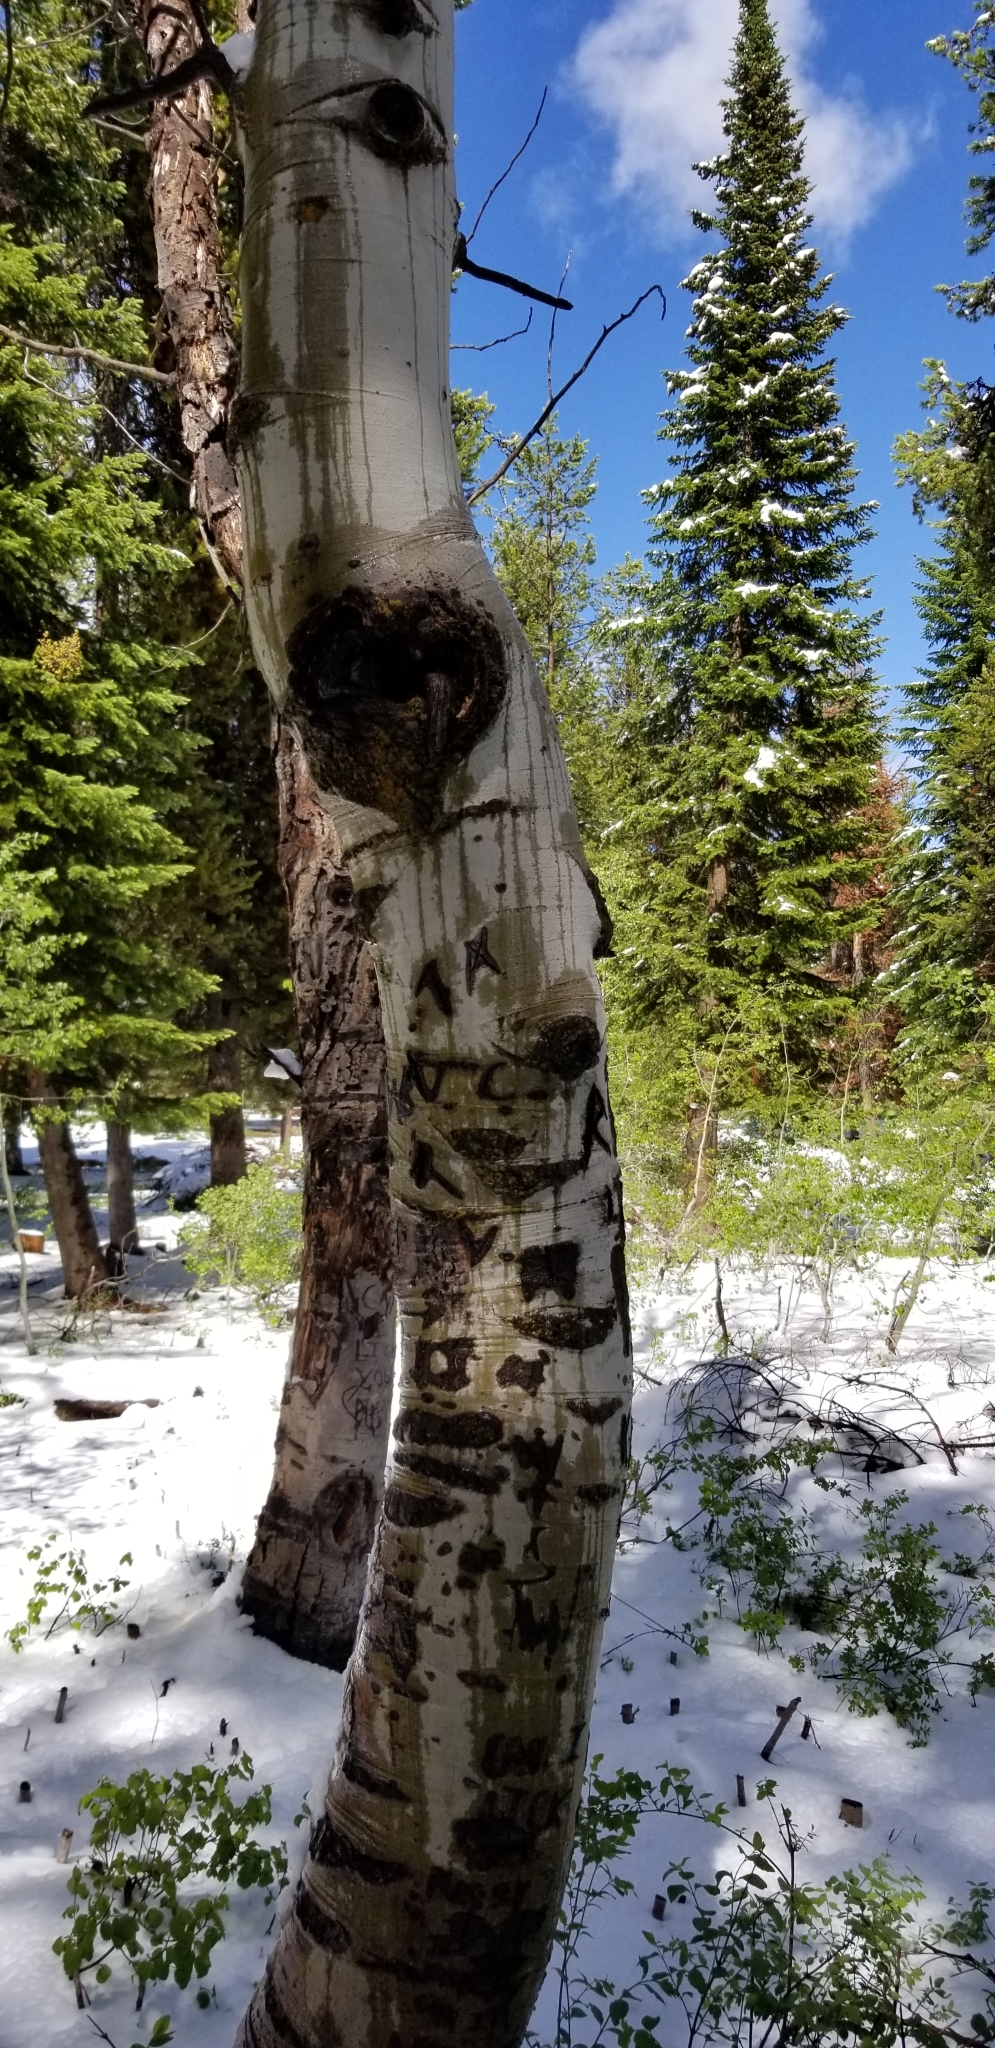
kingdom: Plantae
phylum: Tracheophyta
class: Magnoliopsida
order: Malpighiales
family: Salicaceae
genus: Populus
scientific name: Populus tremuloides
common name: Quaking aspen
